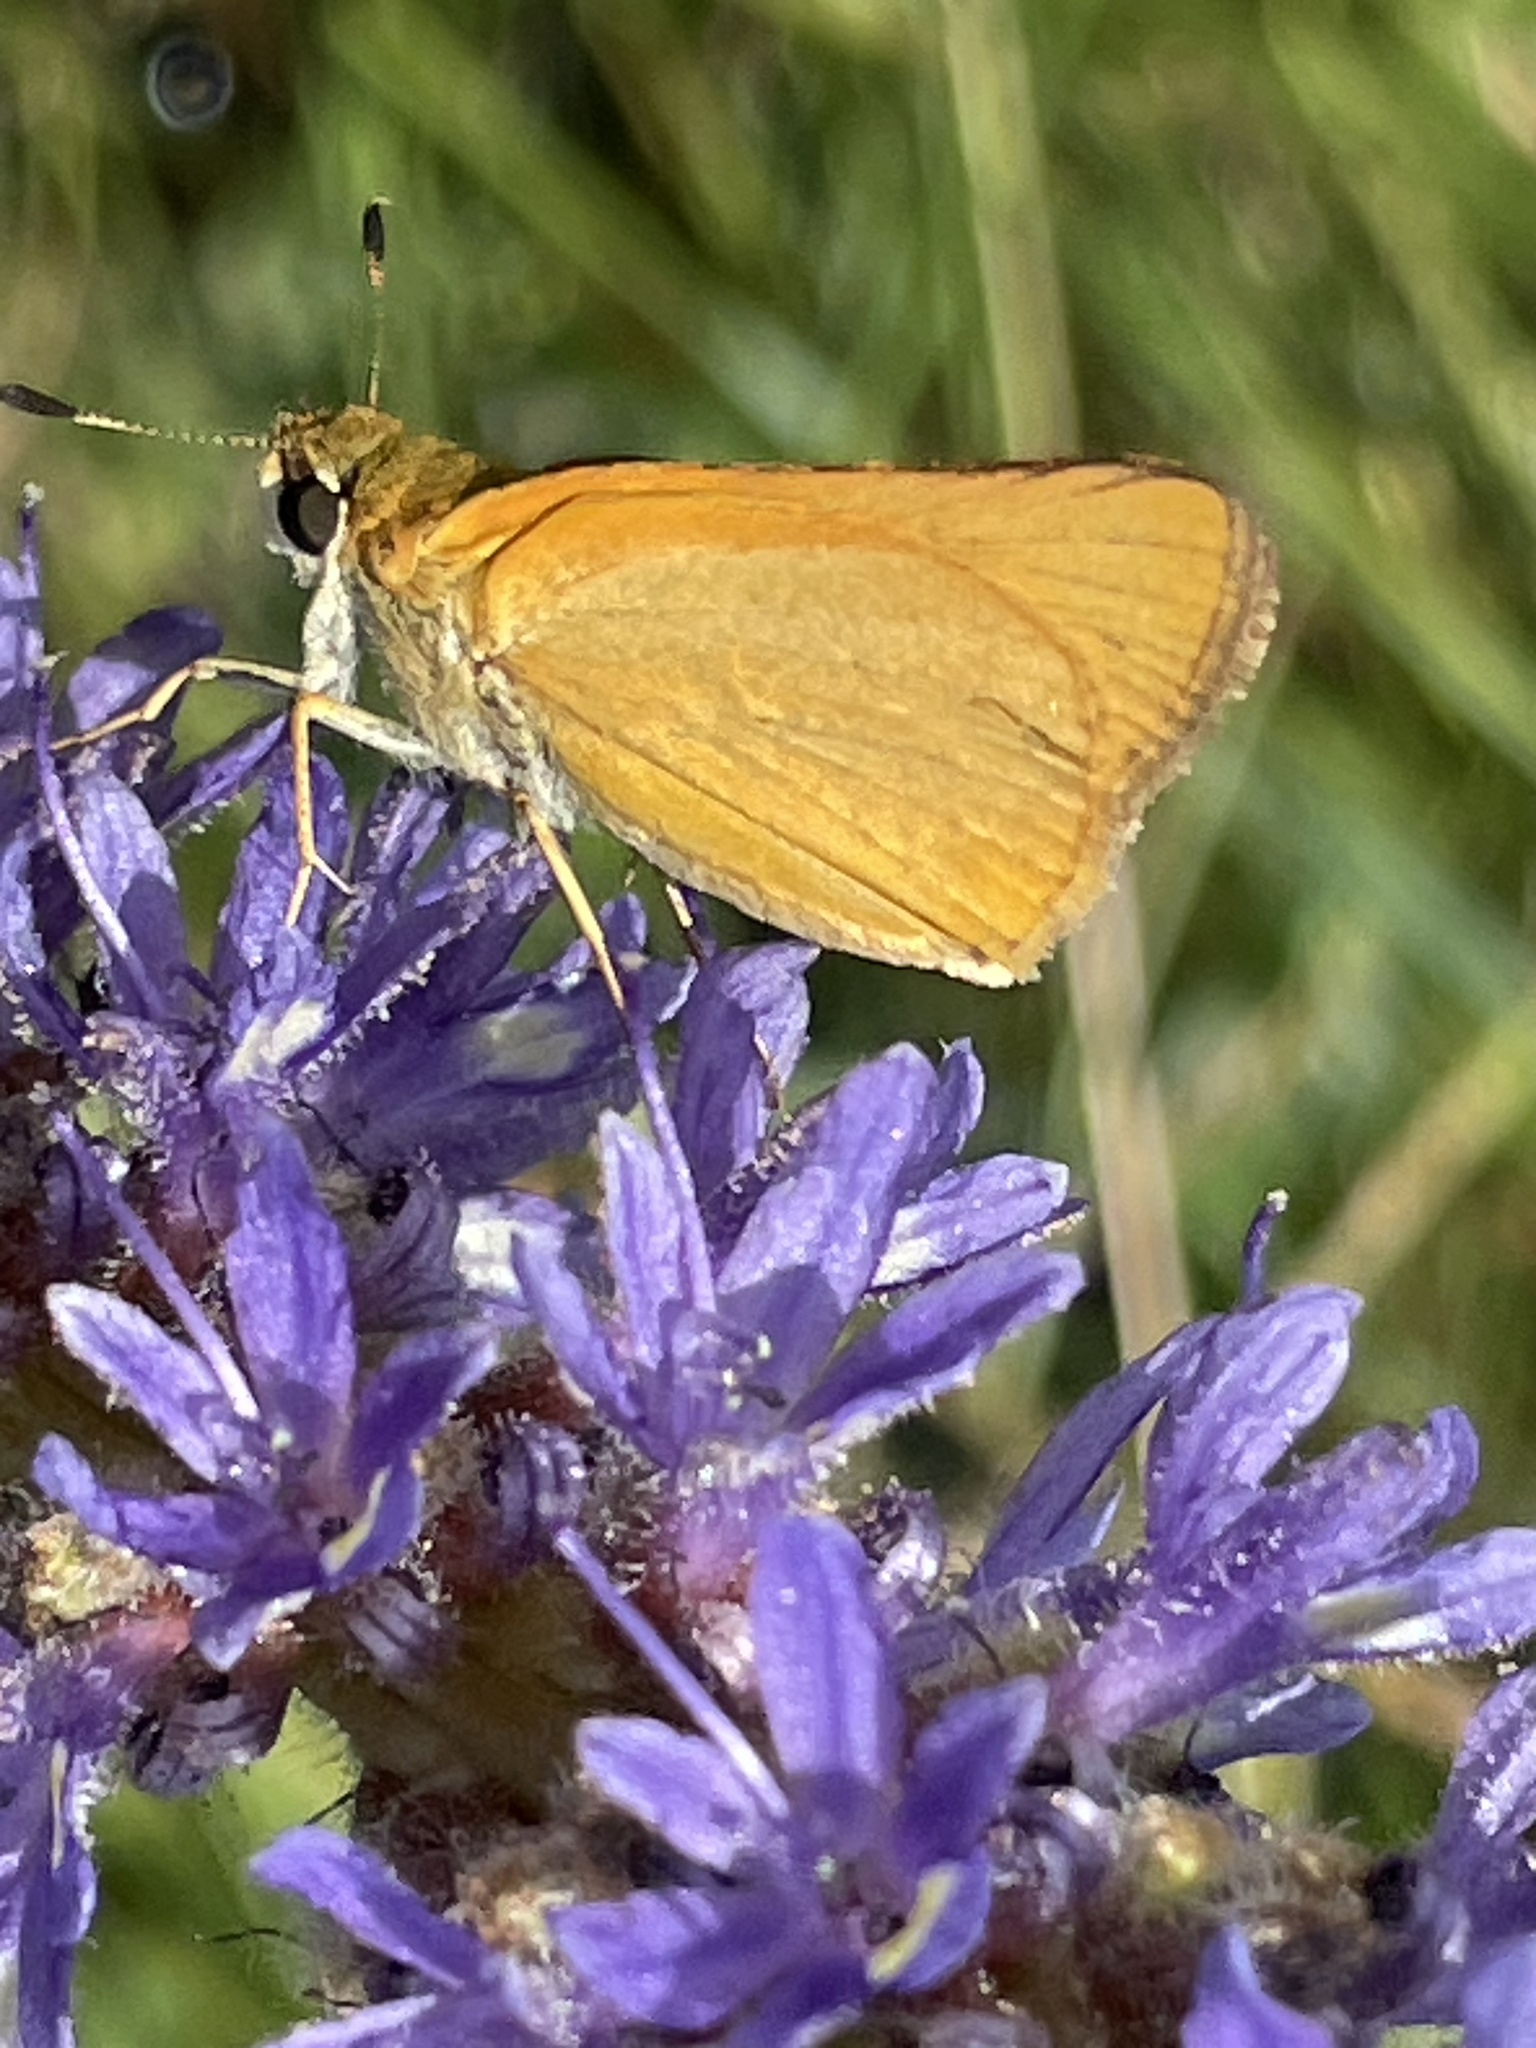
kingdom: Animalia
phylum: Arthropoda
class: Insecta
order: Lepidoptera
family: Hesperiidae
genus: Atrytone
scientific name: Atrytone delaware
